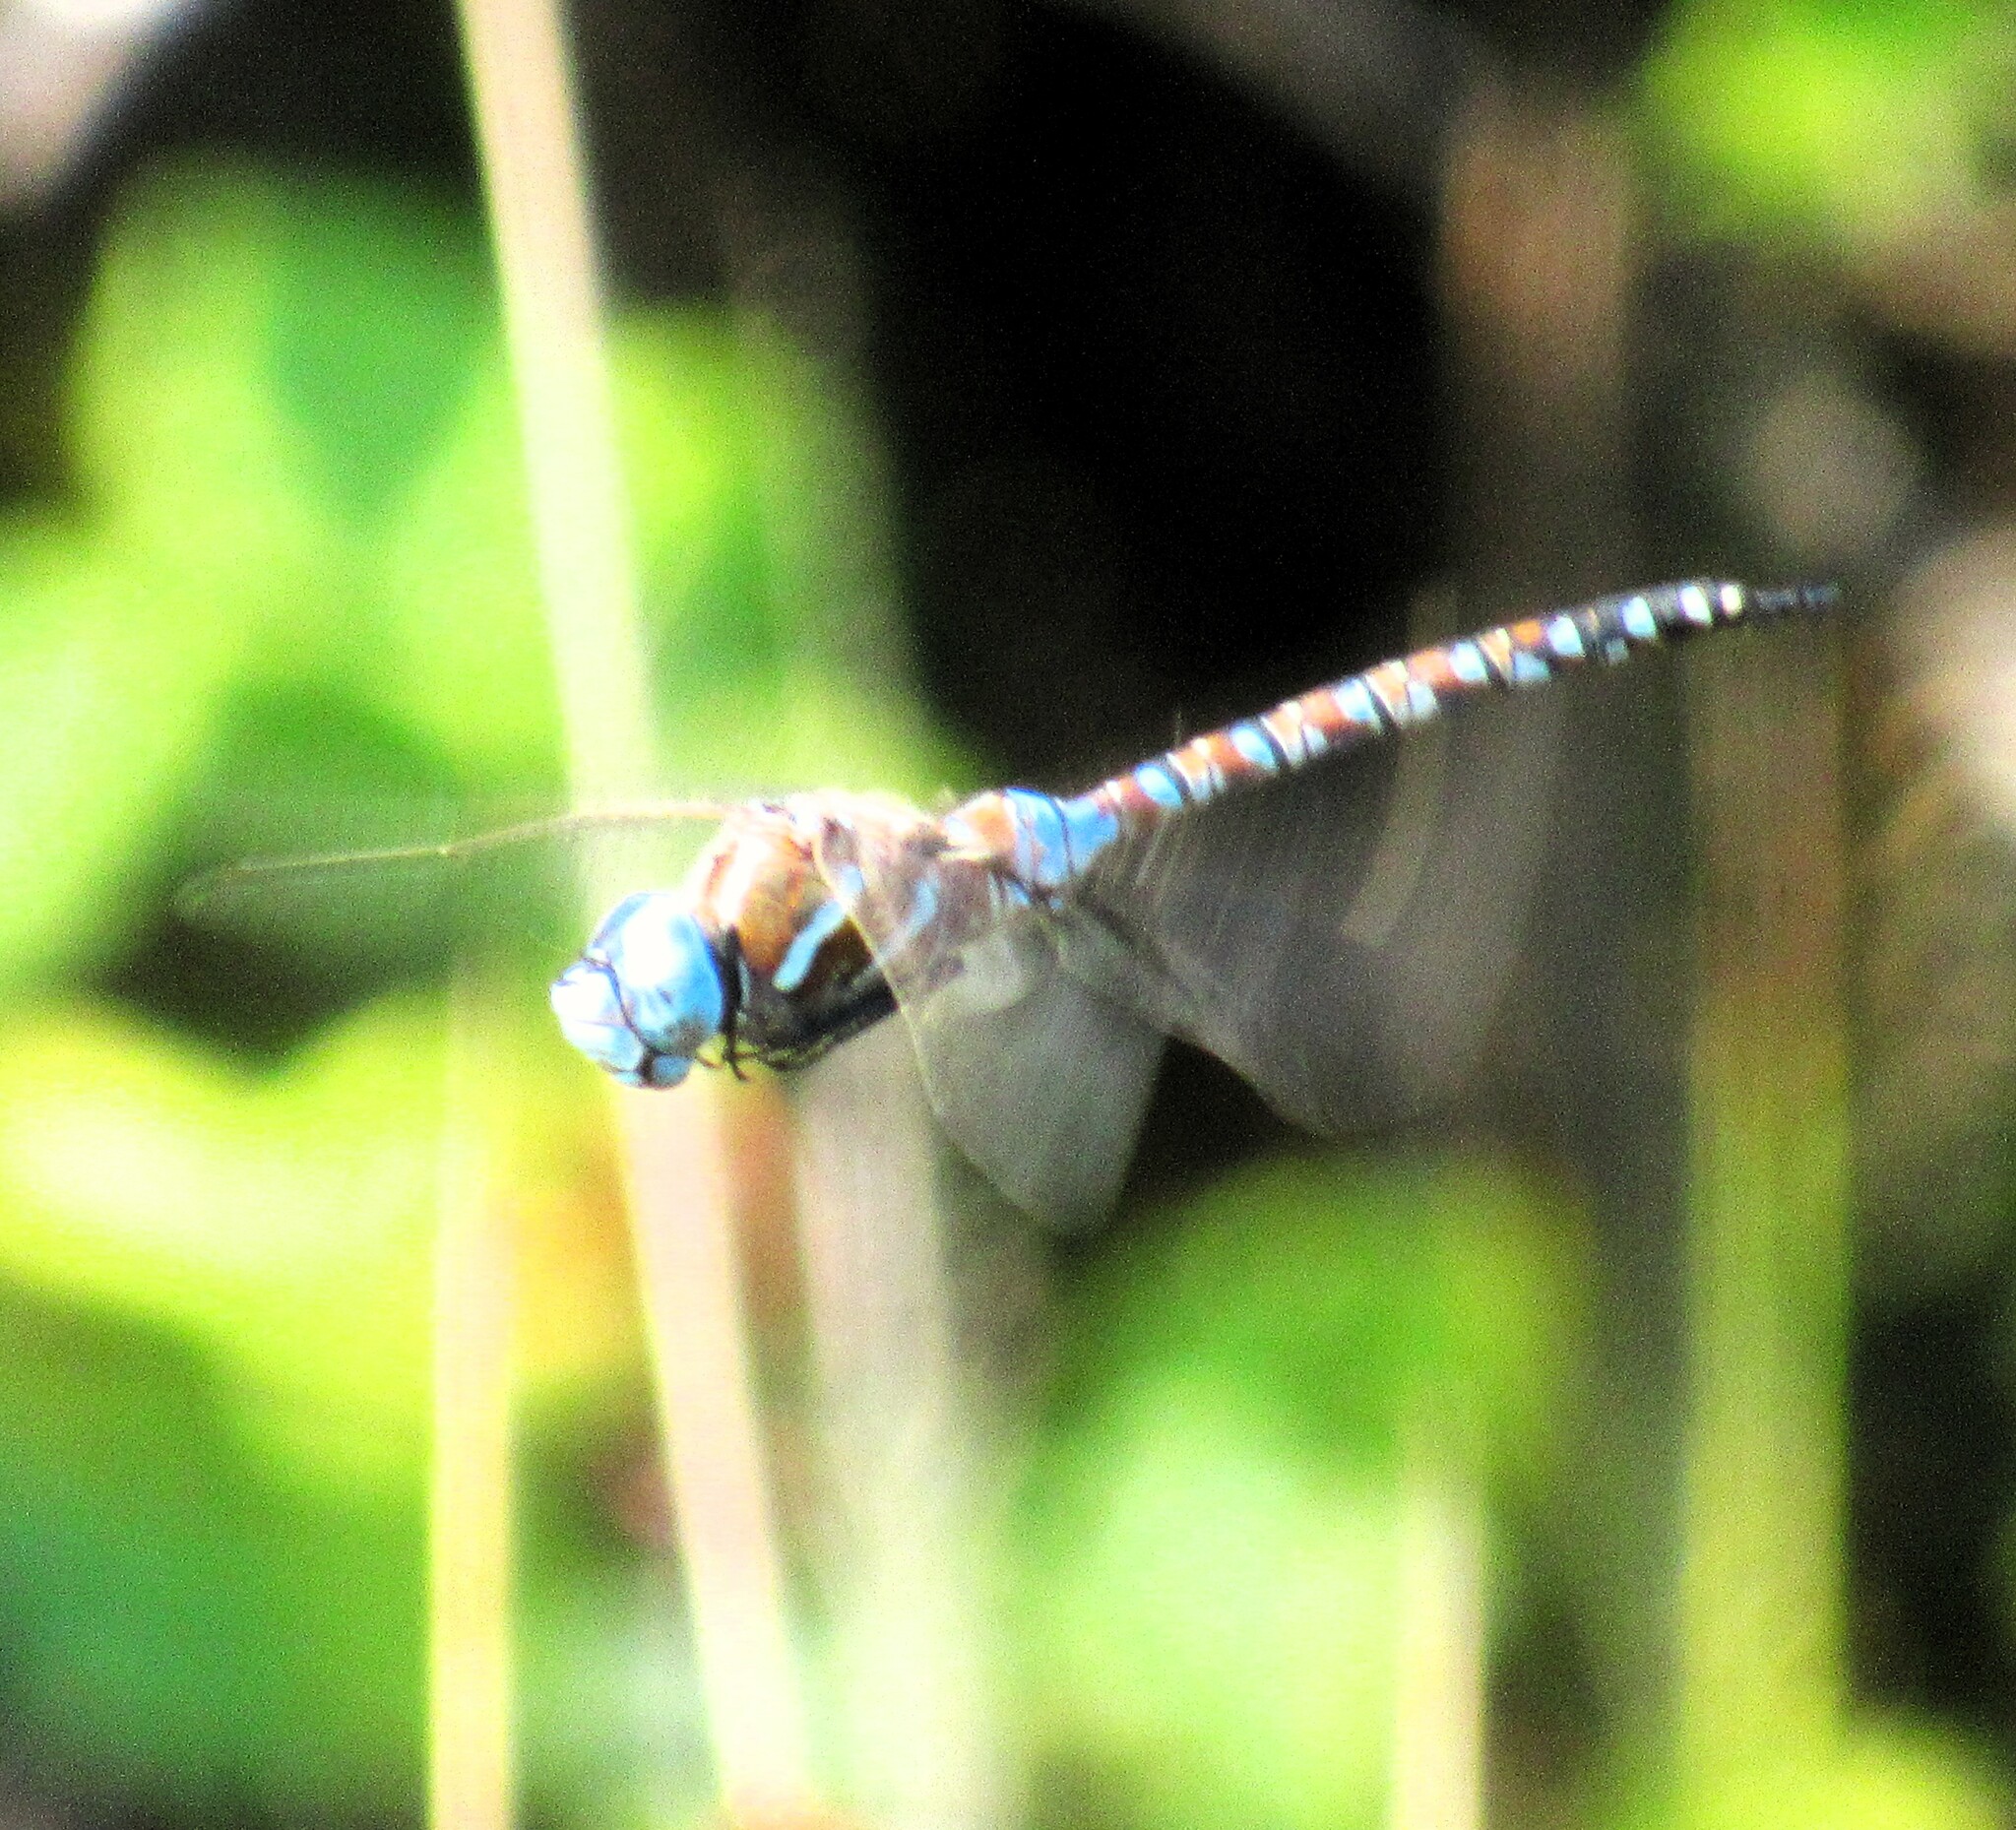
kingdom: Animalia
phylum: Arthropoda
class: Insecta
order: Odonata
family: Aeshnidae
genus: Rhionaeschna
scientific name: Rhionaeschna multicolor
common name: Blue-eyed darner
